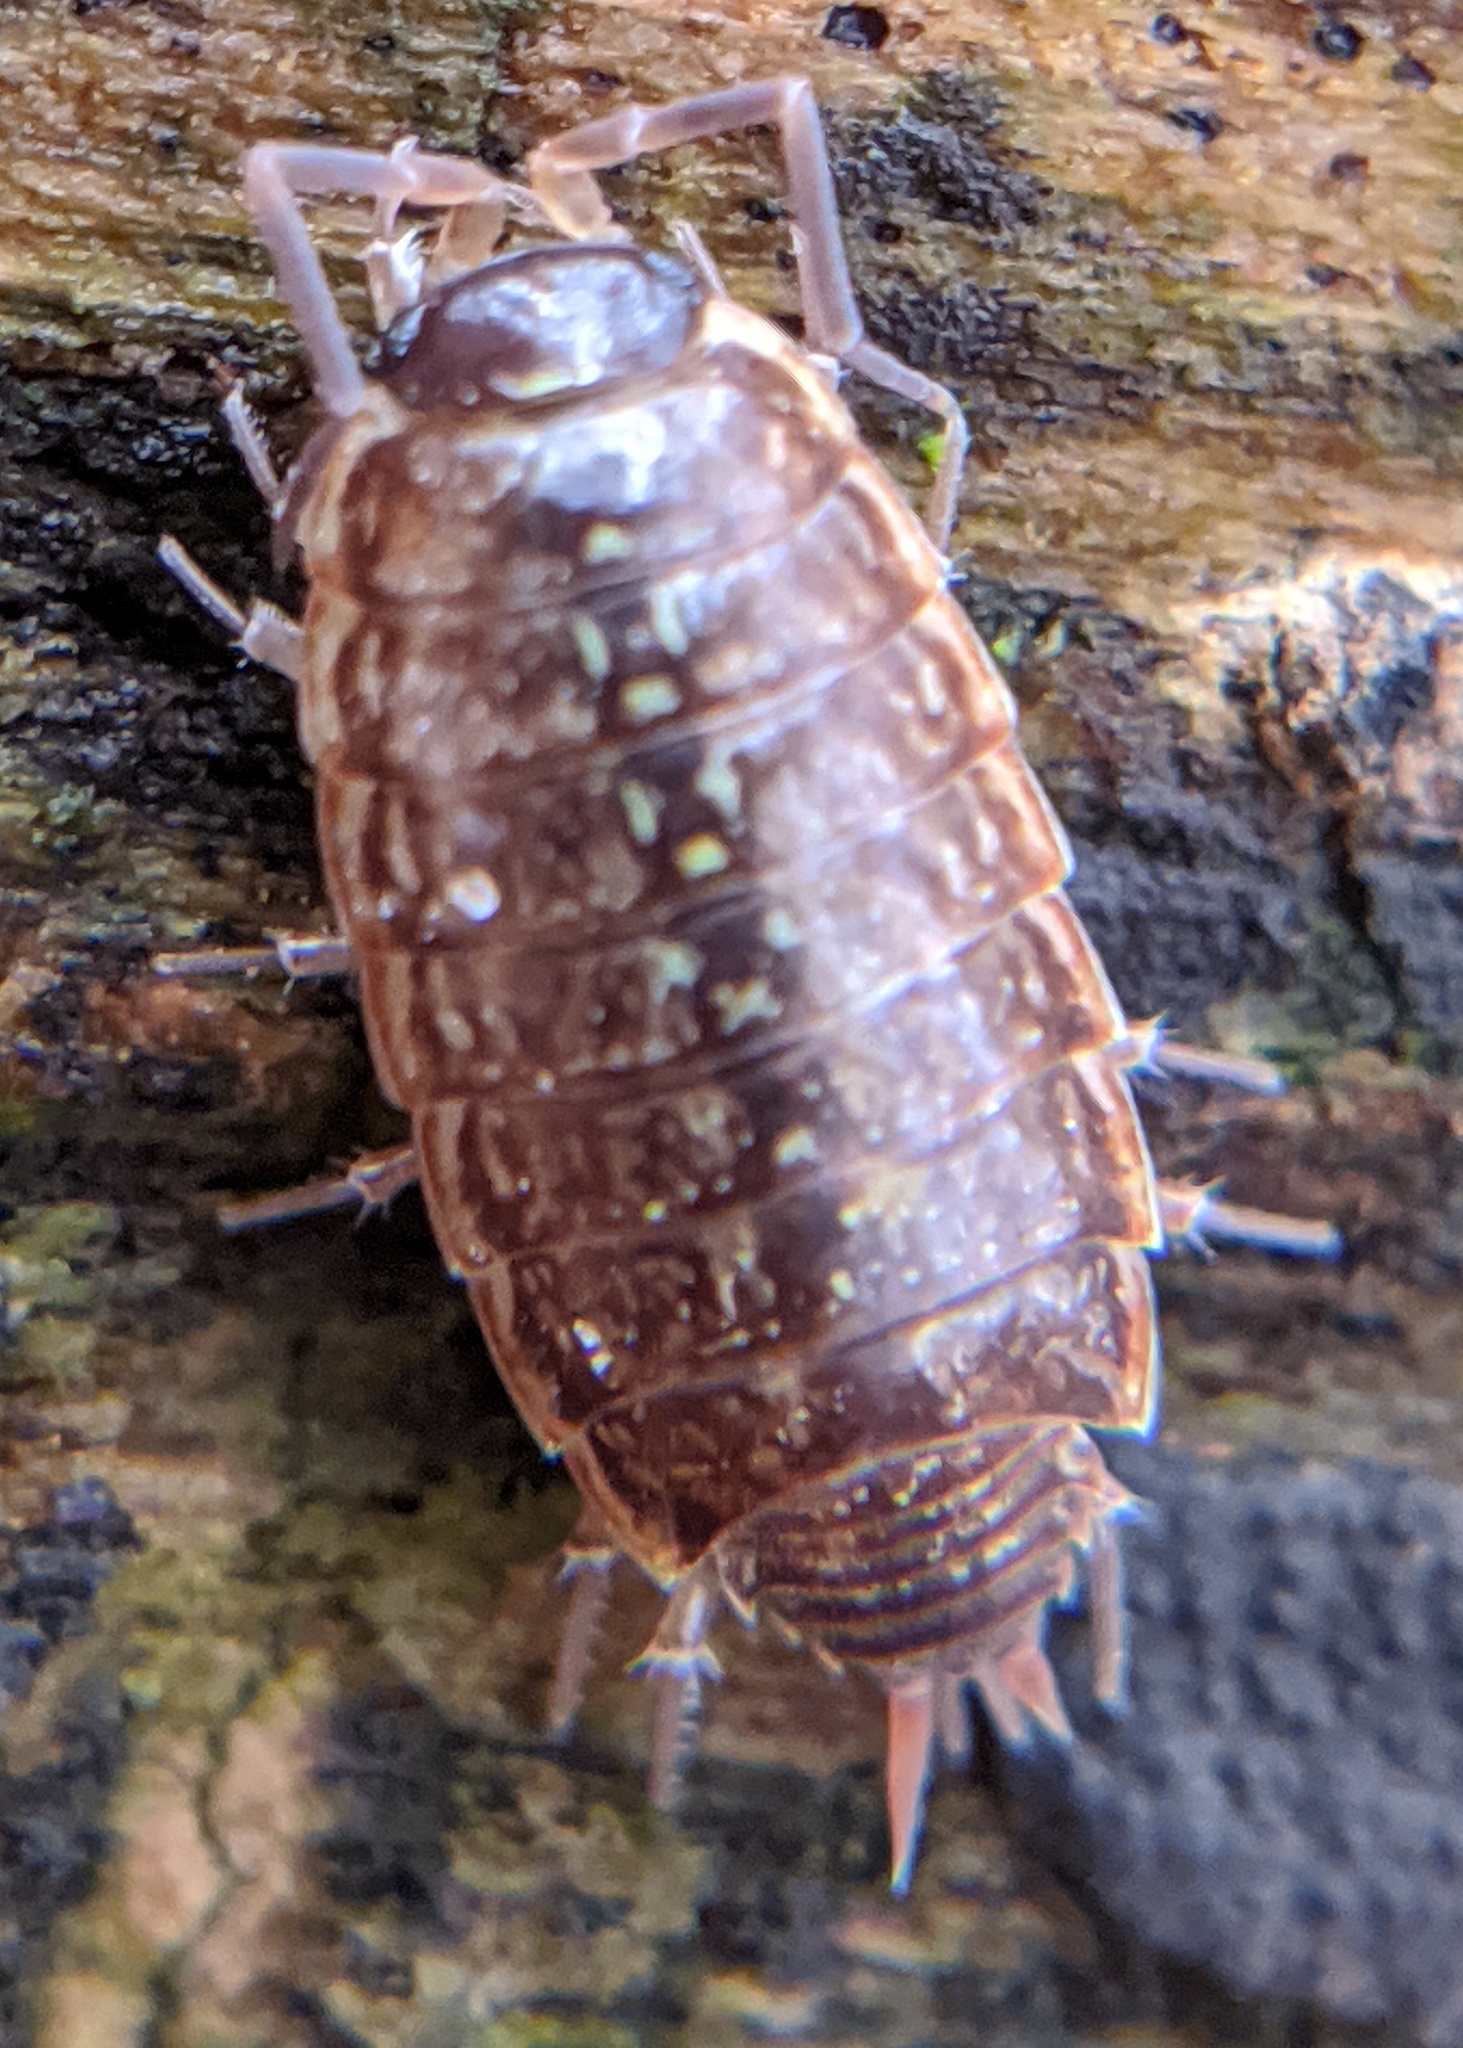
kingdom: Animalia
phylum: Arthropoda
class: Malacostraca
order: Isopoda
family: Philosciidae
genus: Philoscia
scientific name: Philoscia muscorum
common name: Common striped woodlouse
